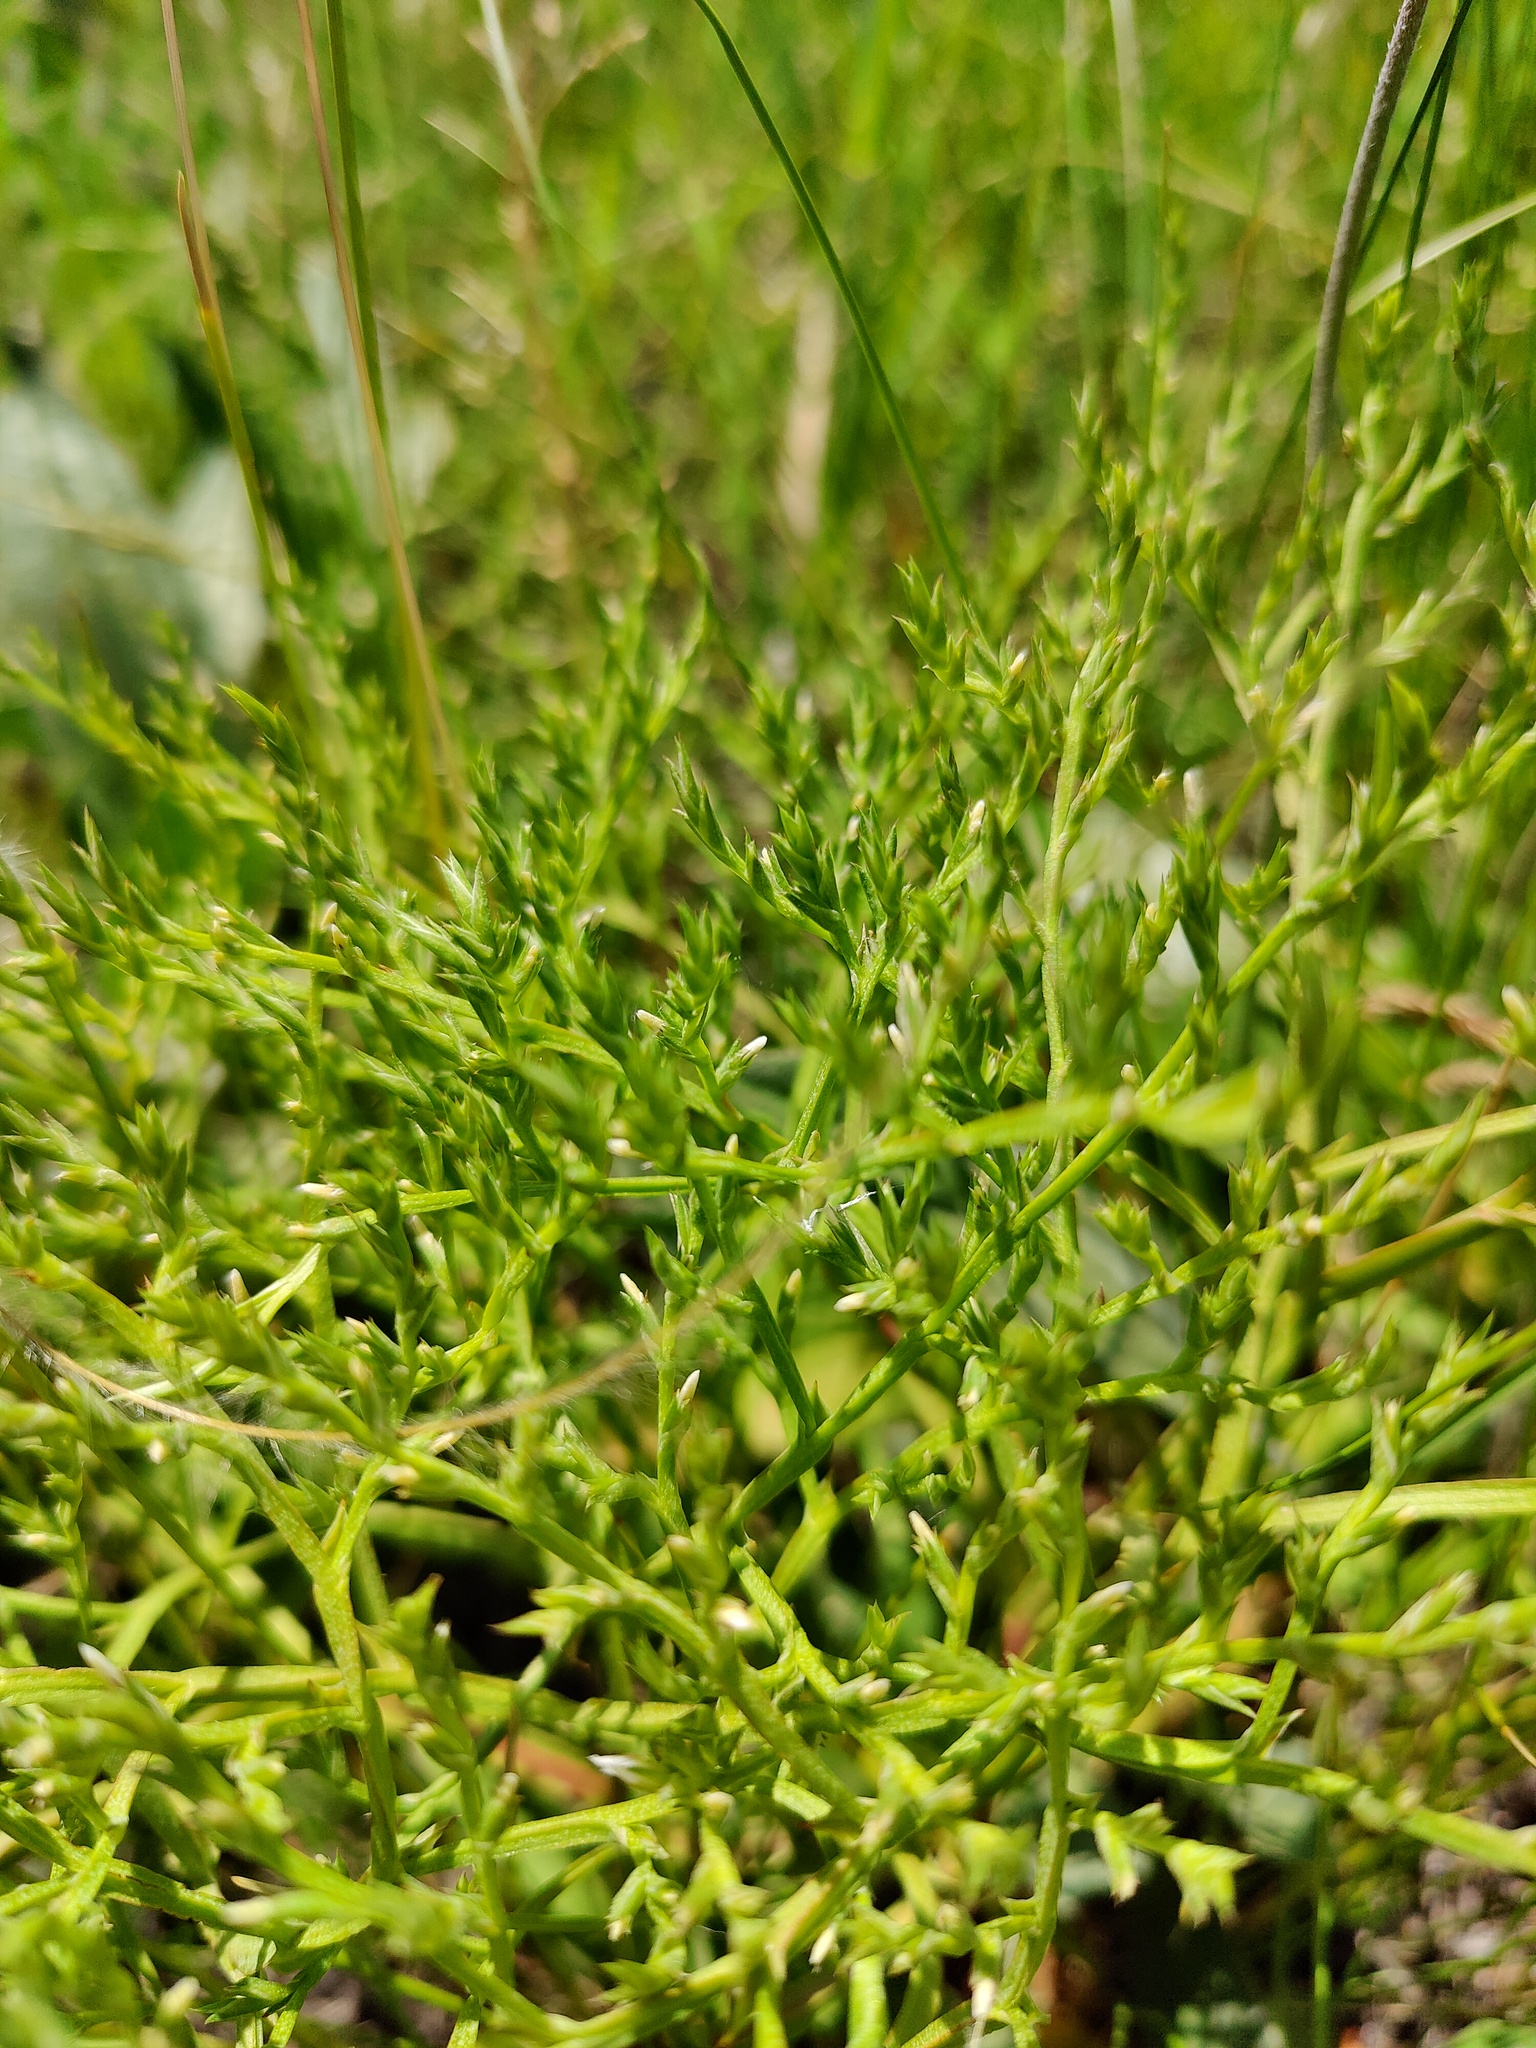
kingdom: Plantae
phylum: Tracheophyta
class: Magnoliopsida
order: Caryophyllales
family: Plumbaginaceae
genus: Goniolimon
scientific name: Goniolimon tataricum
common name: Statice
